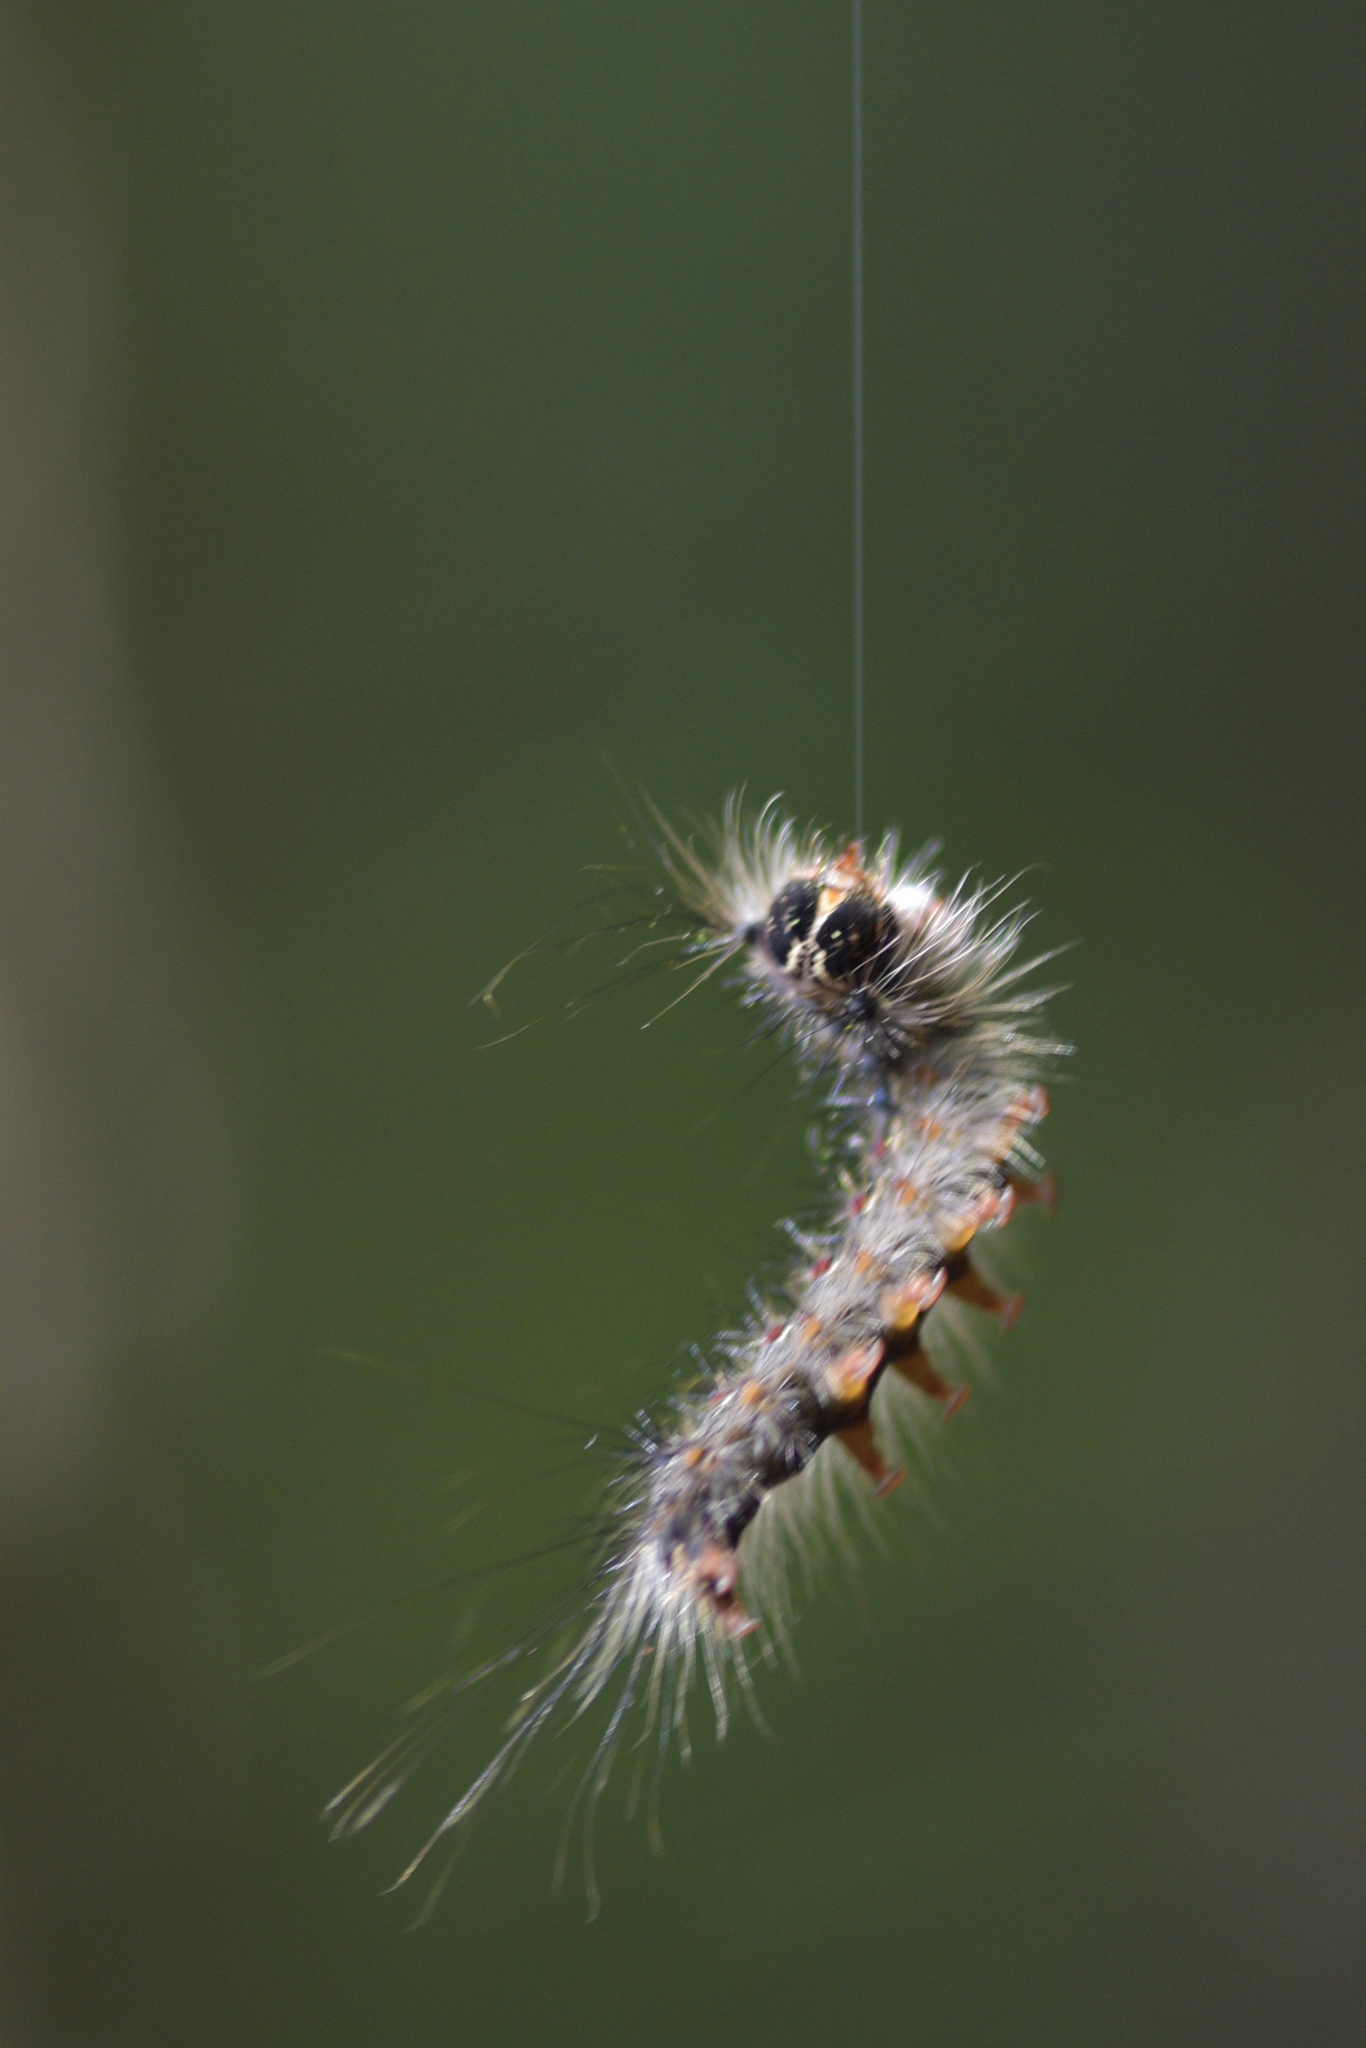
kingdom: Animalia
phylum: Arthropoda
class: Insecta
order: Lepidoptera
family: Erebidae
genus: Lymantria
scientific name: Lymantria dispar
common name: Gypsy moth
